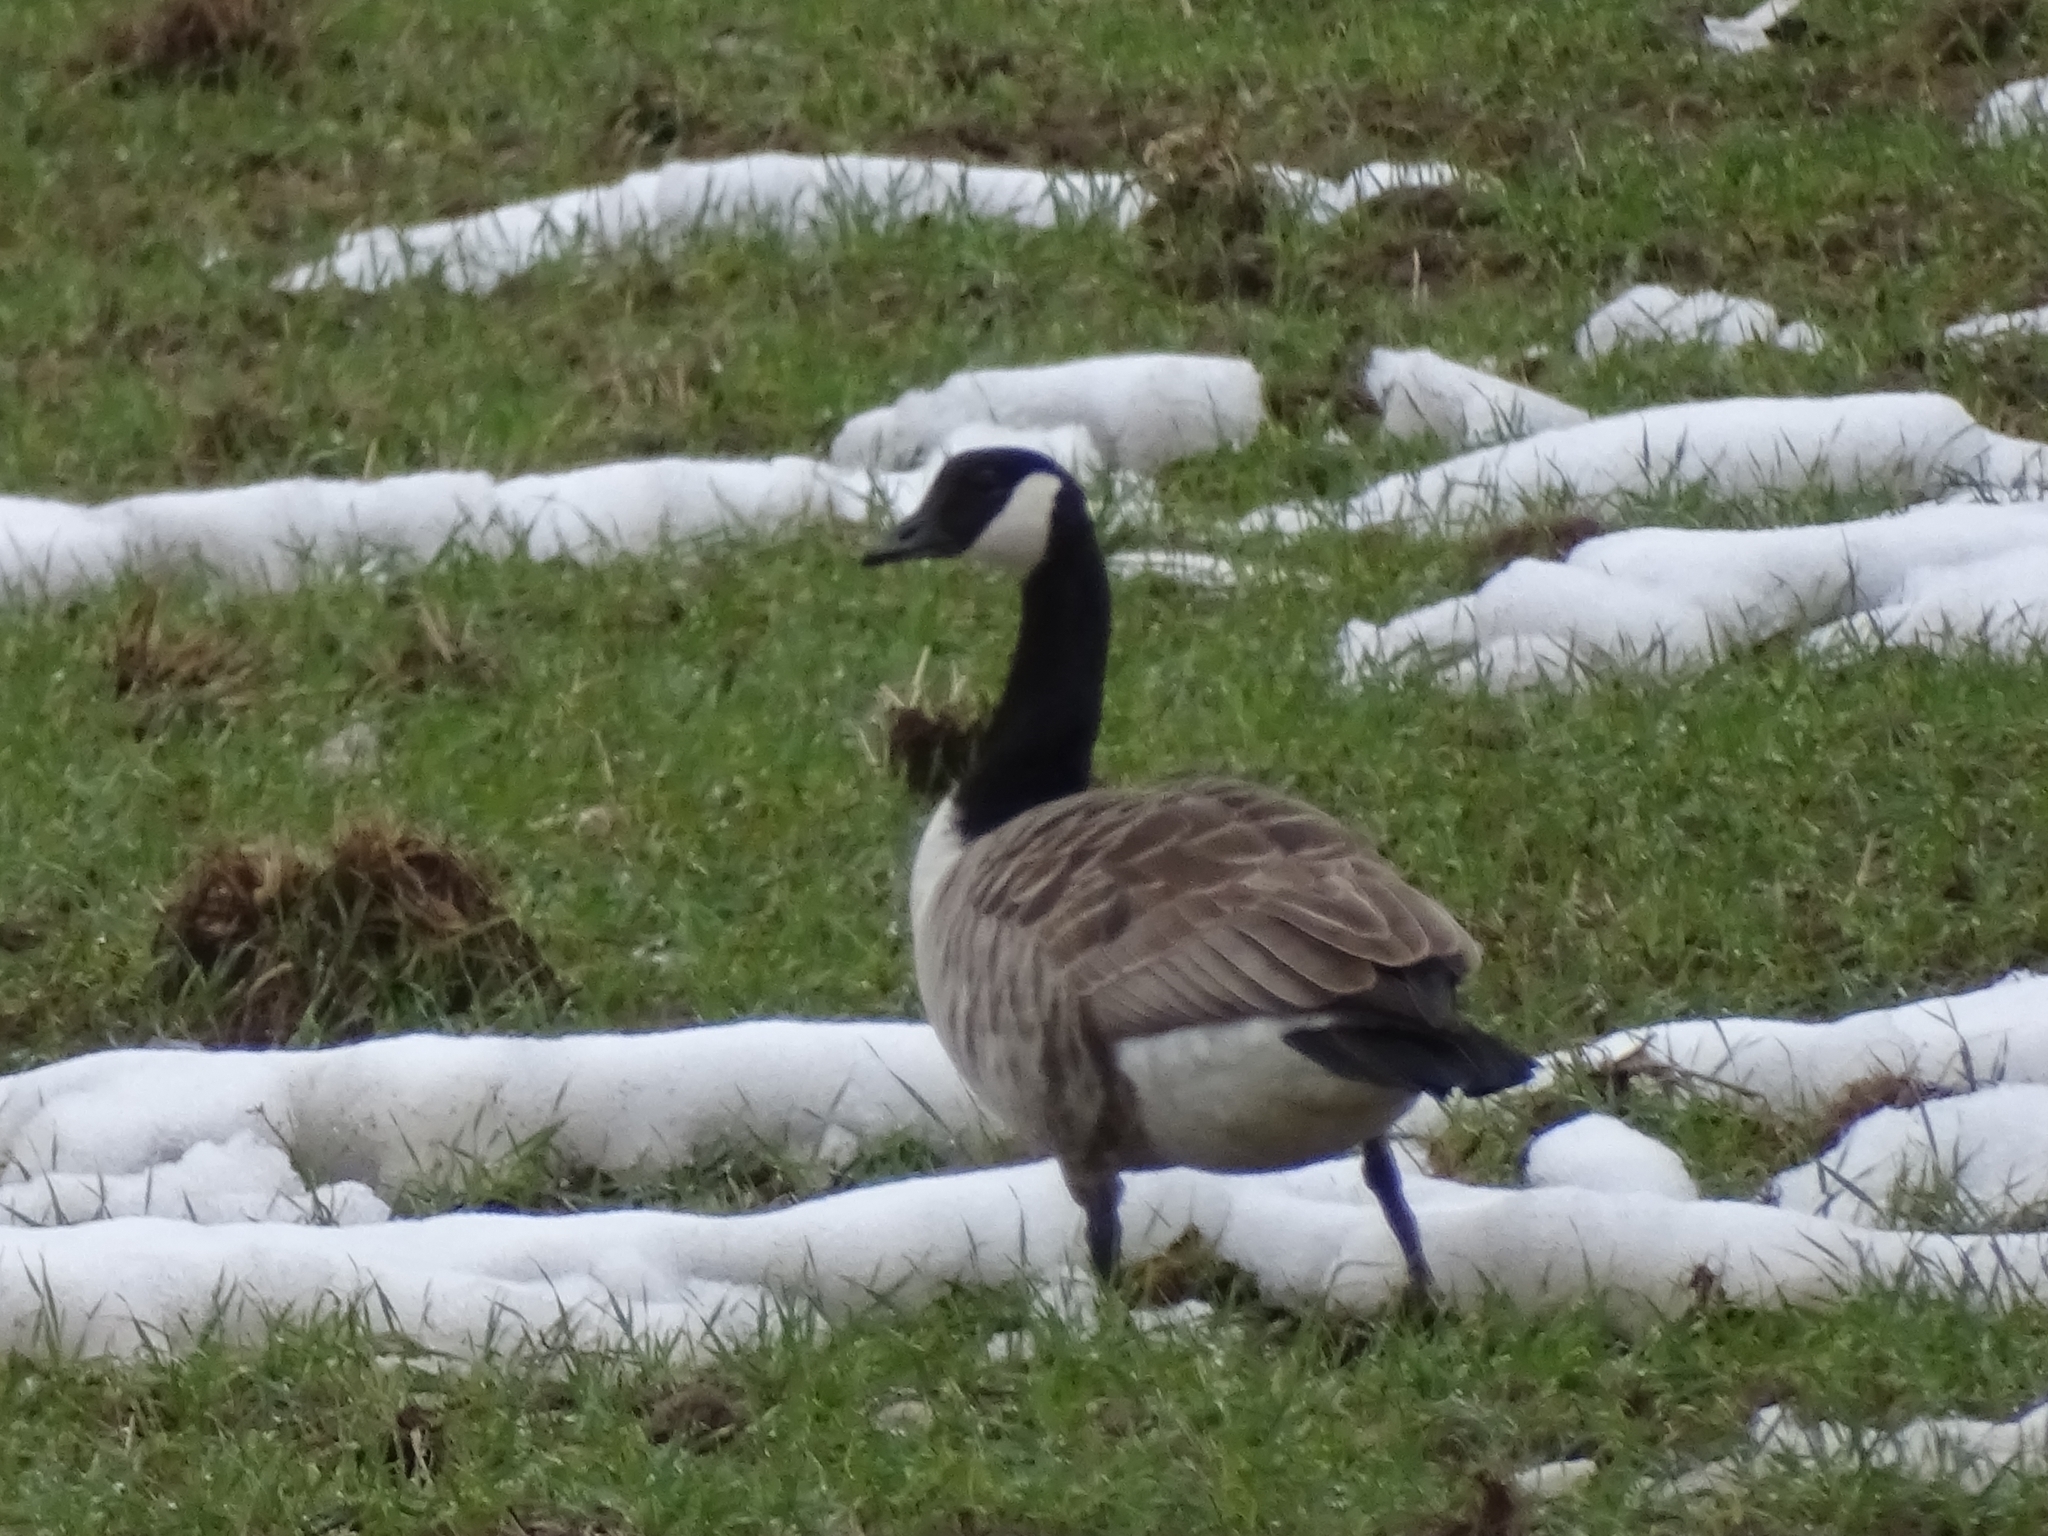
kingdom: Animalia
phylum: Chordata
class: Aves
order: Anseriformes
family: Anatidae
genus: Branta
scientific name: Branta canadensis
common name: Canada goose
